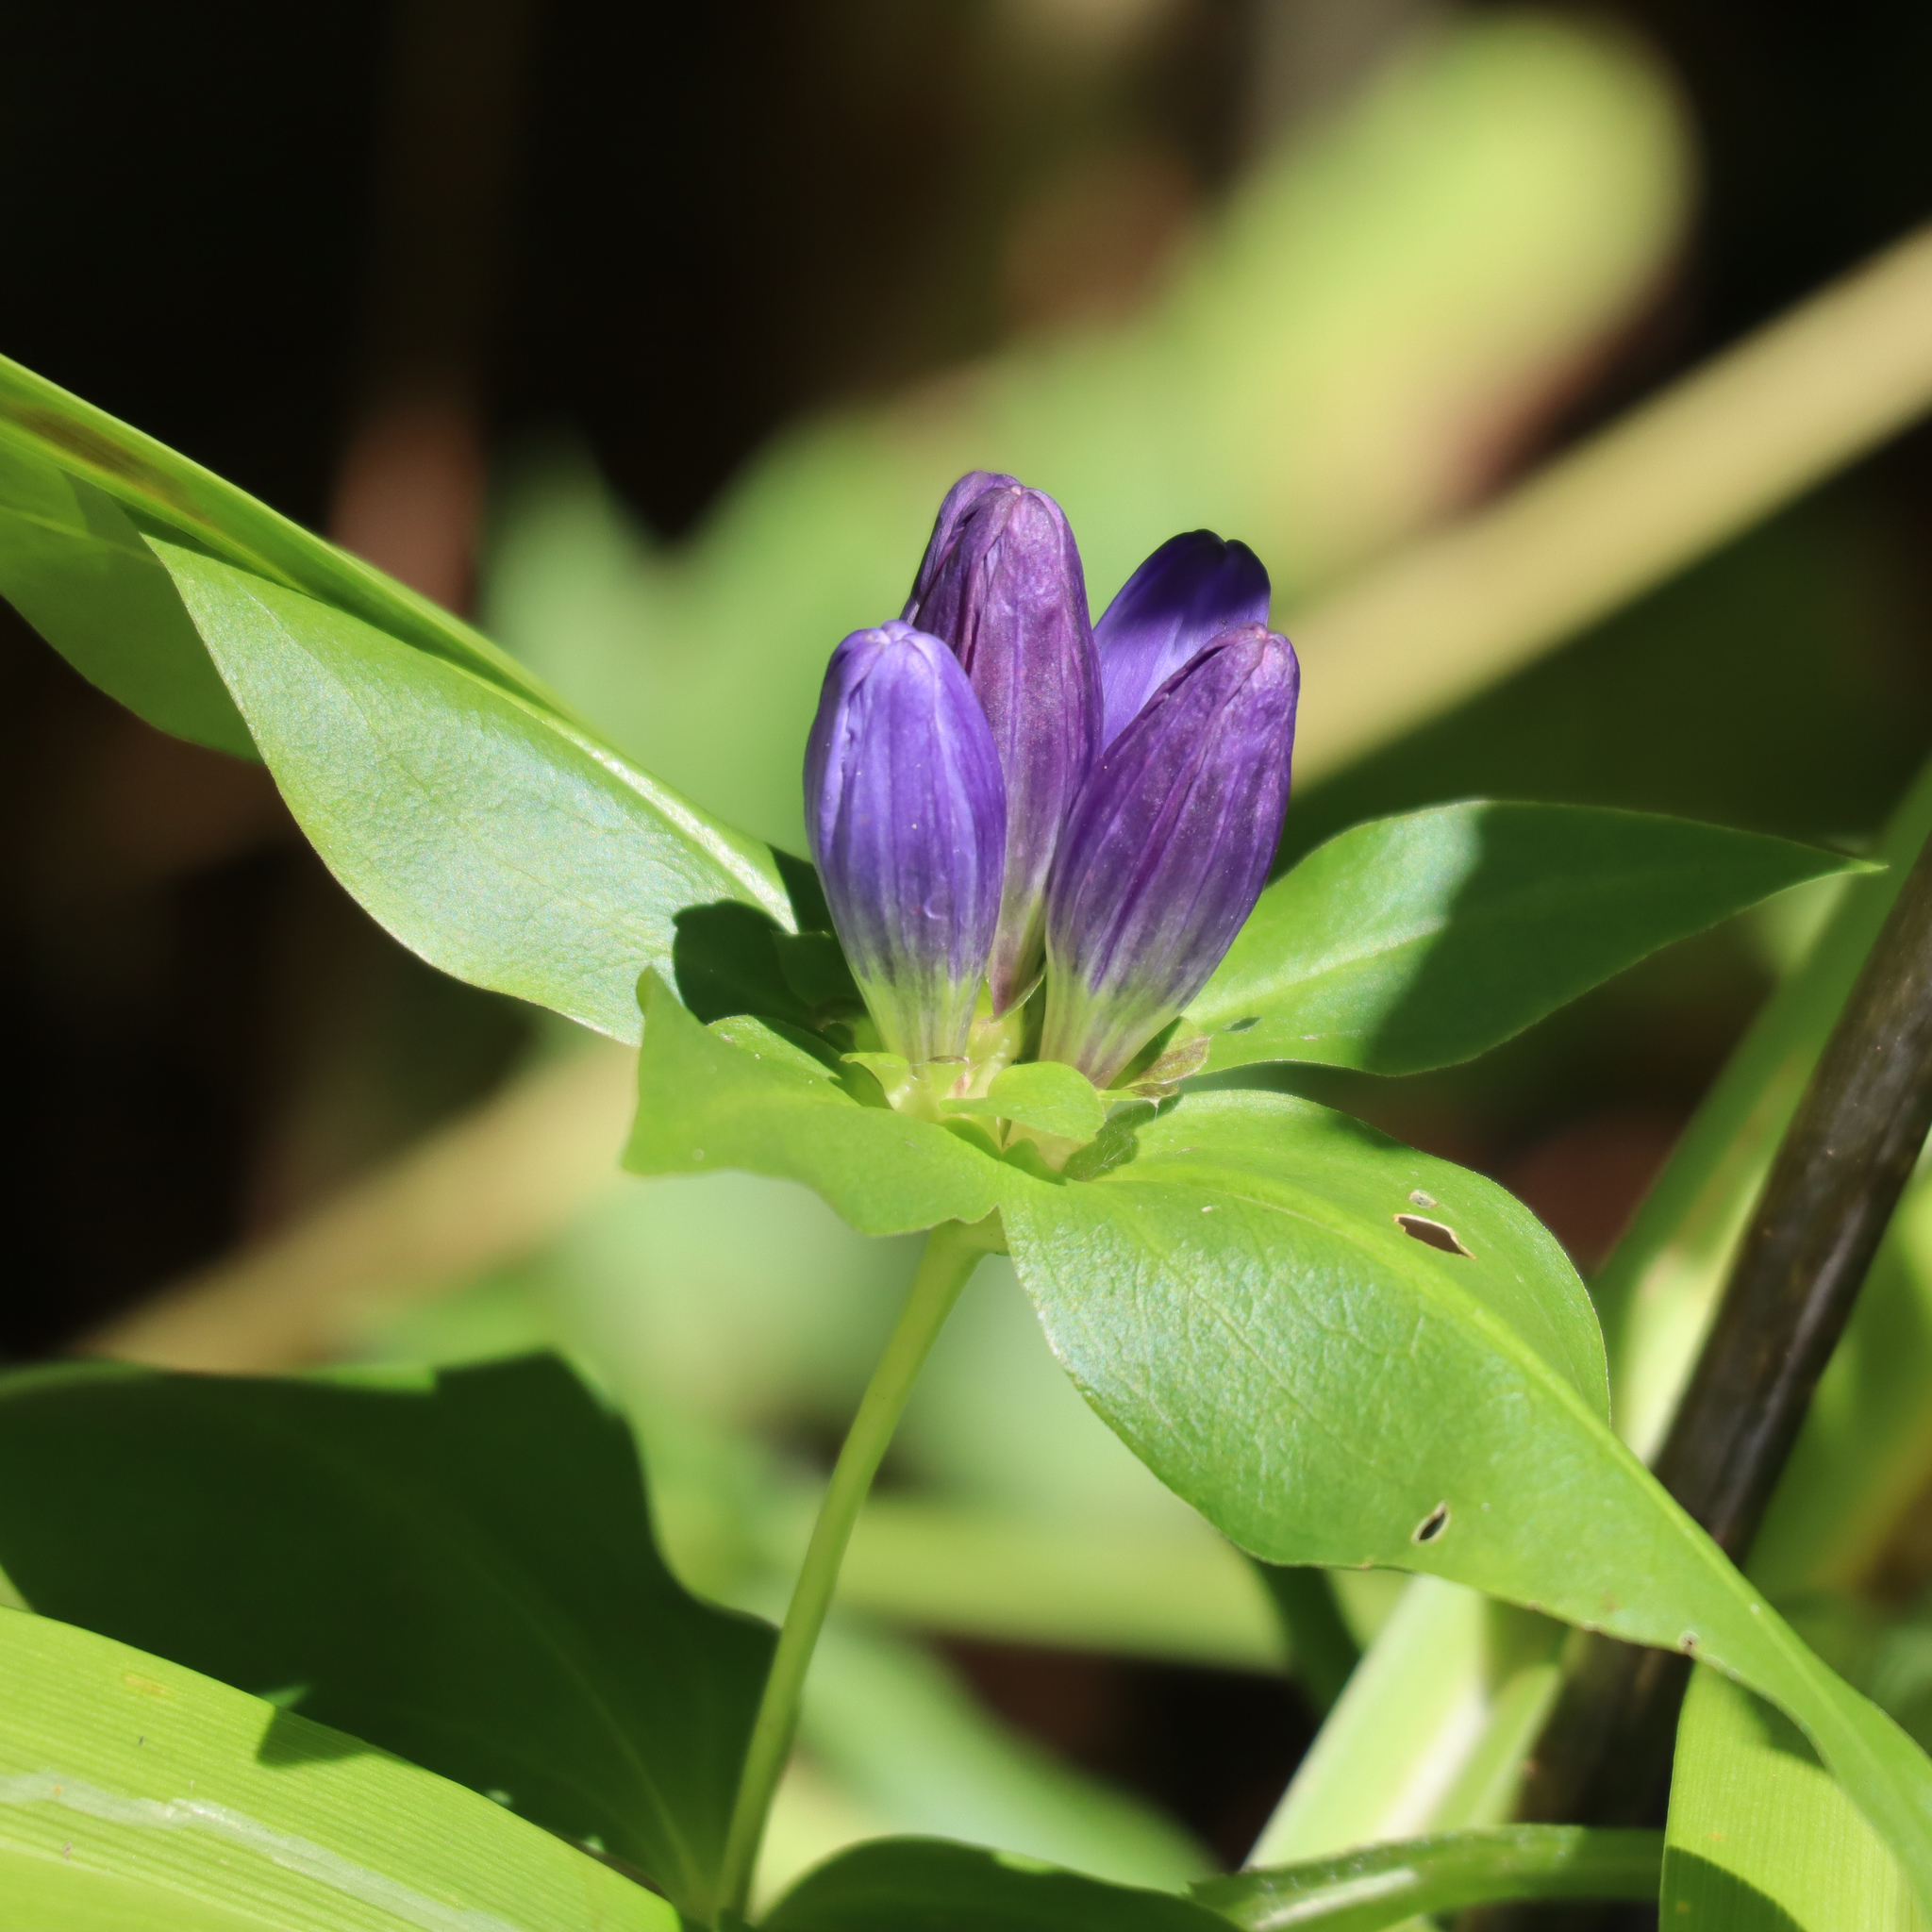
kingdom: Plantae
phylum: Tracheophyta
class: Magnoliopsida
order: Gentianales
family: Gentianaceae
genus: Gentiana
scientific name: Gentiana clausa
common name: Blind gentian
